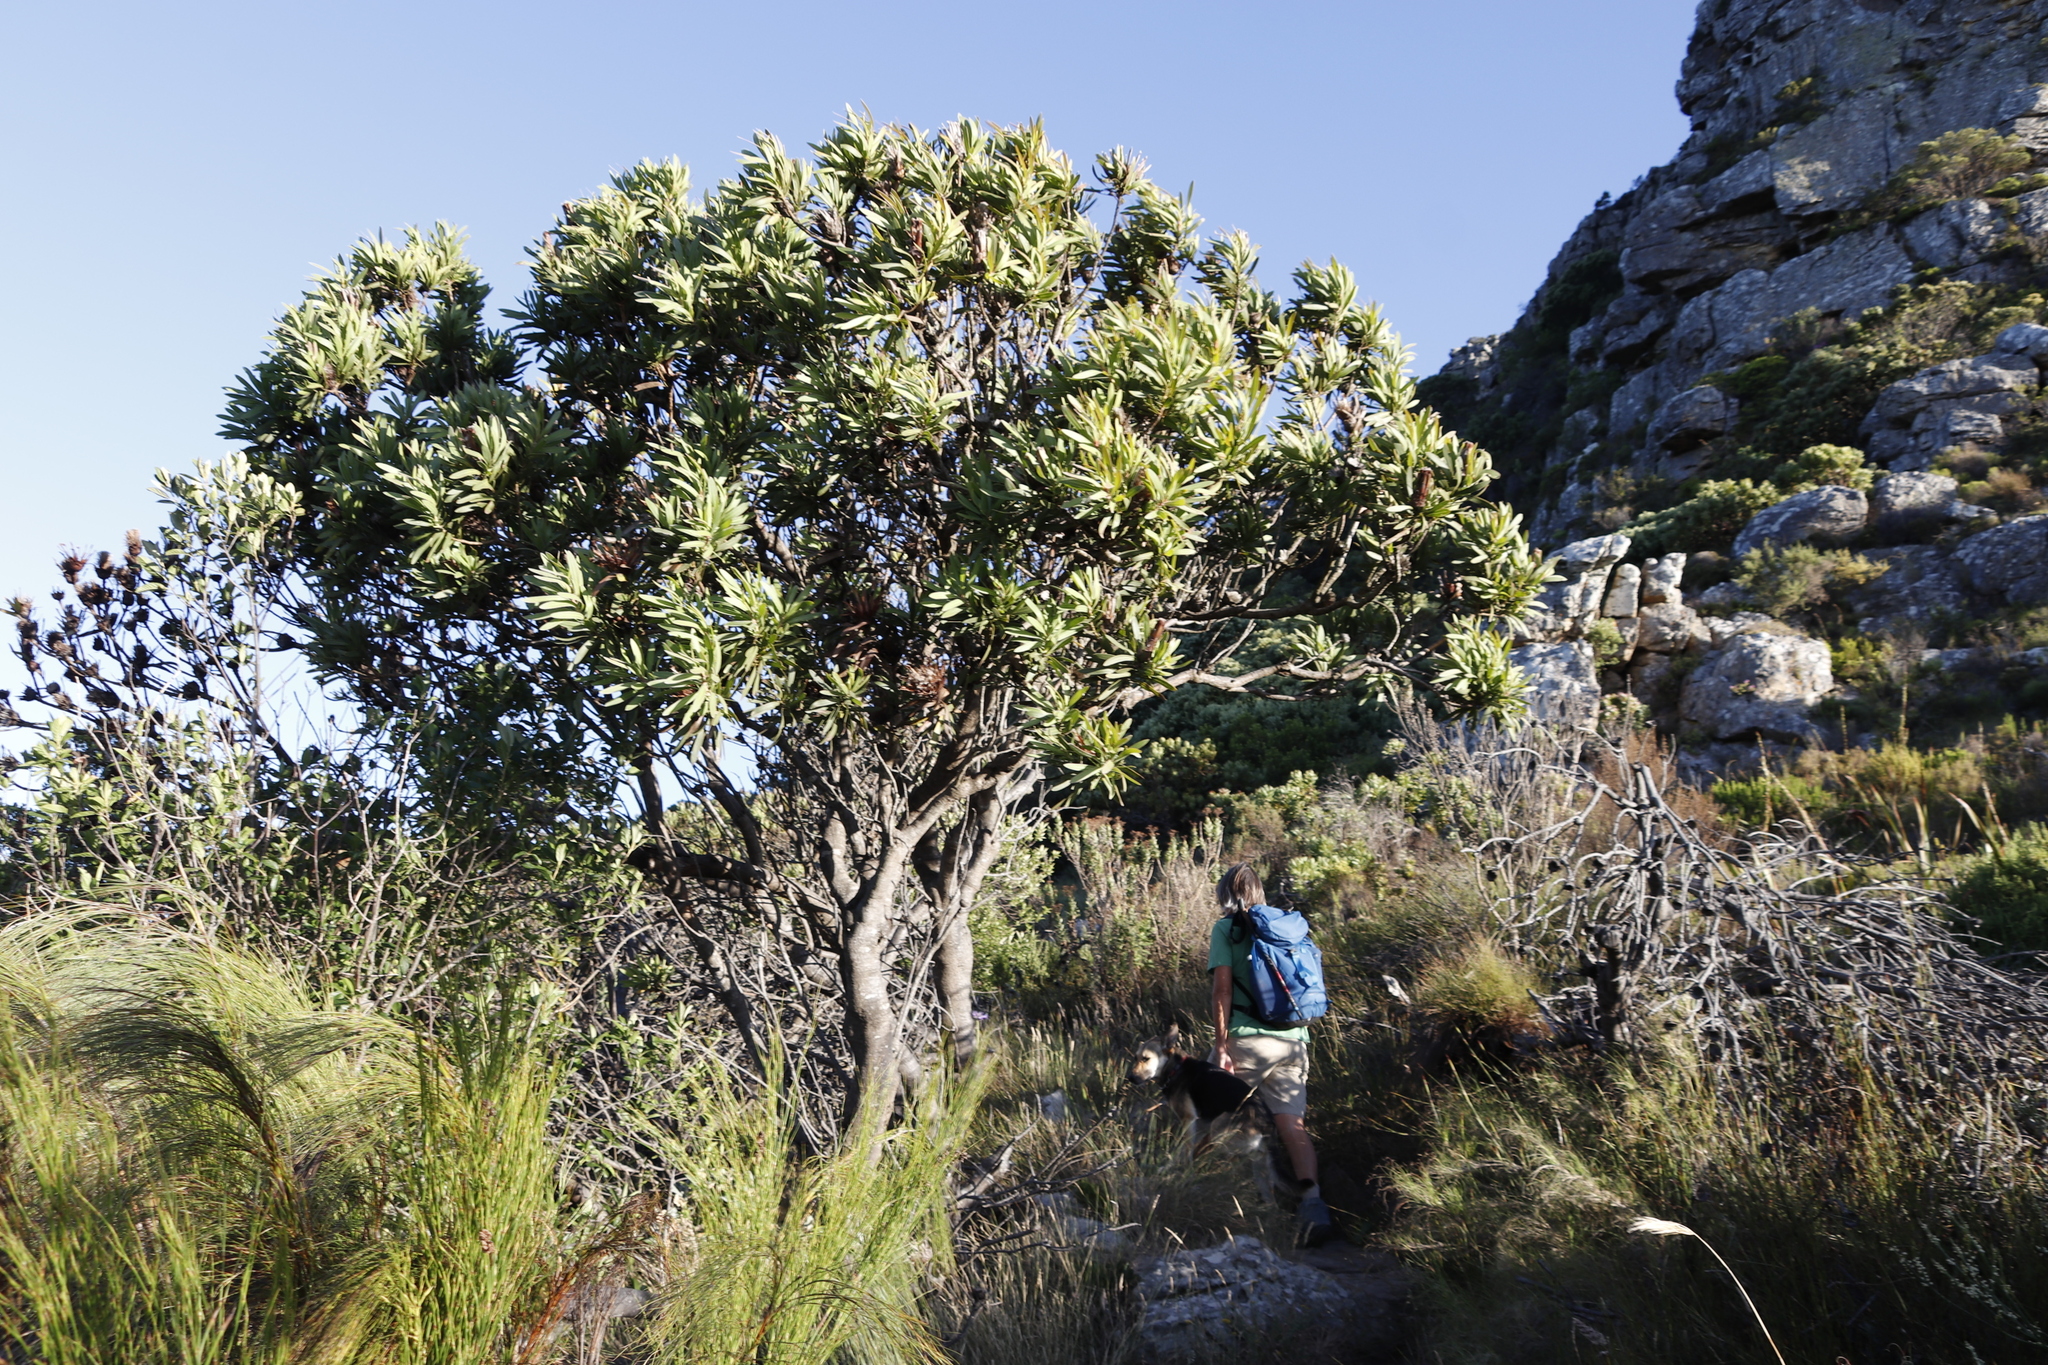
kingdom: Plantae
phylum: Tracheophyta
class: Magnoliopsida
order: Proteales
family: Proteaceae
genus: Protea
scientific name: Protea lepidocarpodendron
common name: Black-bearded protea
